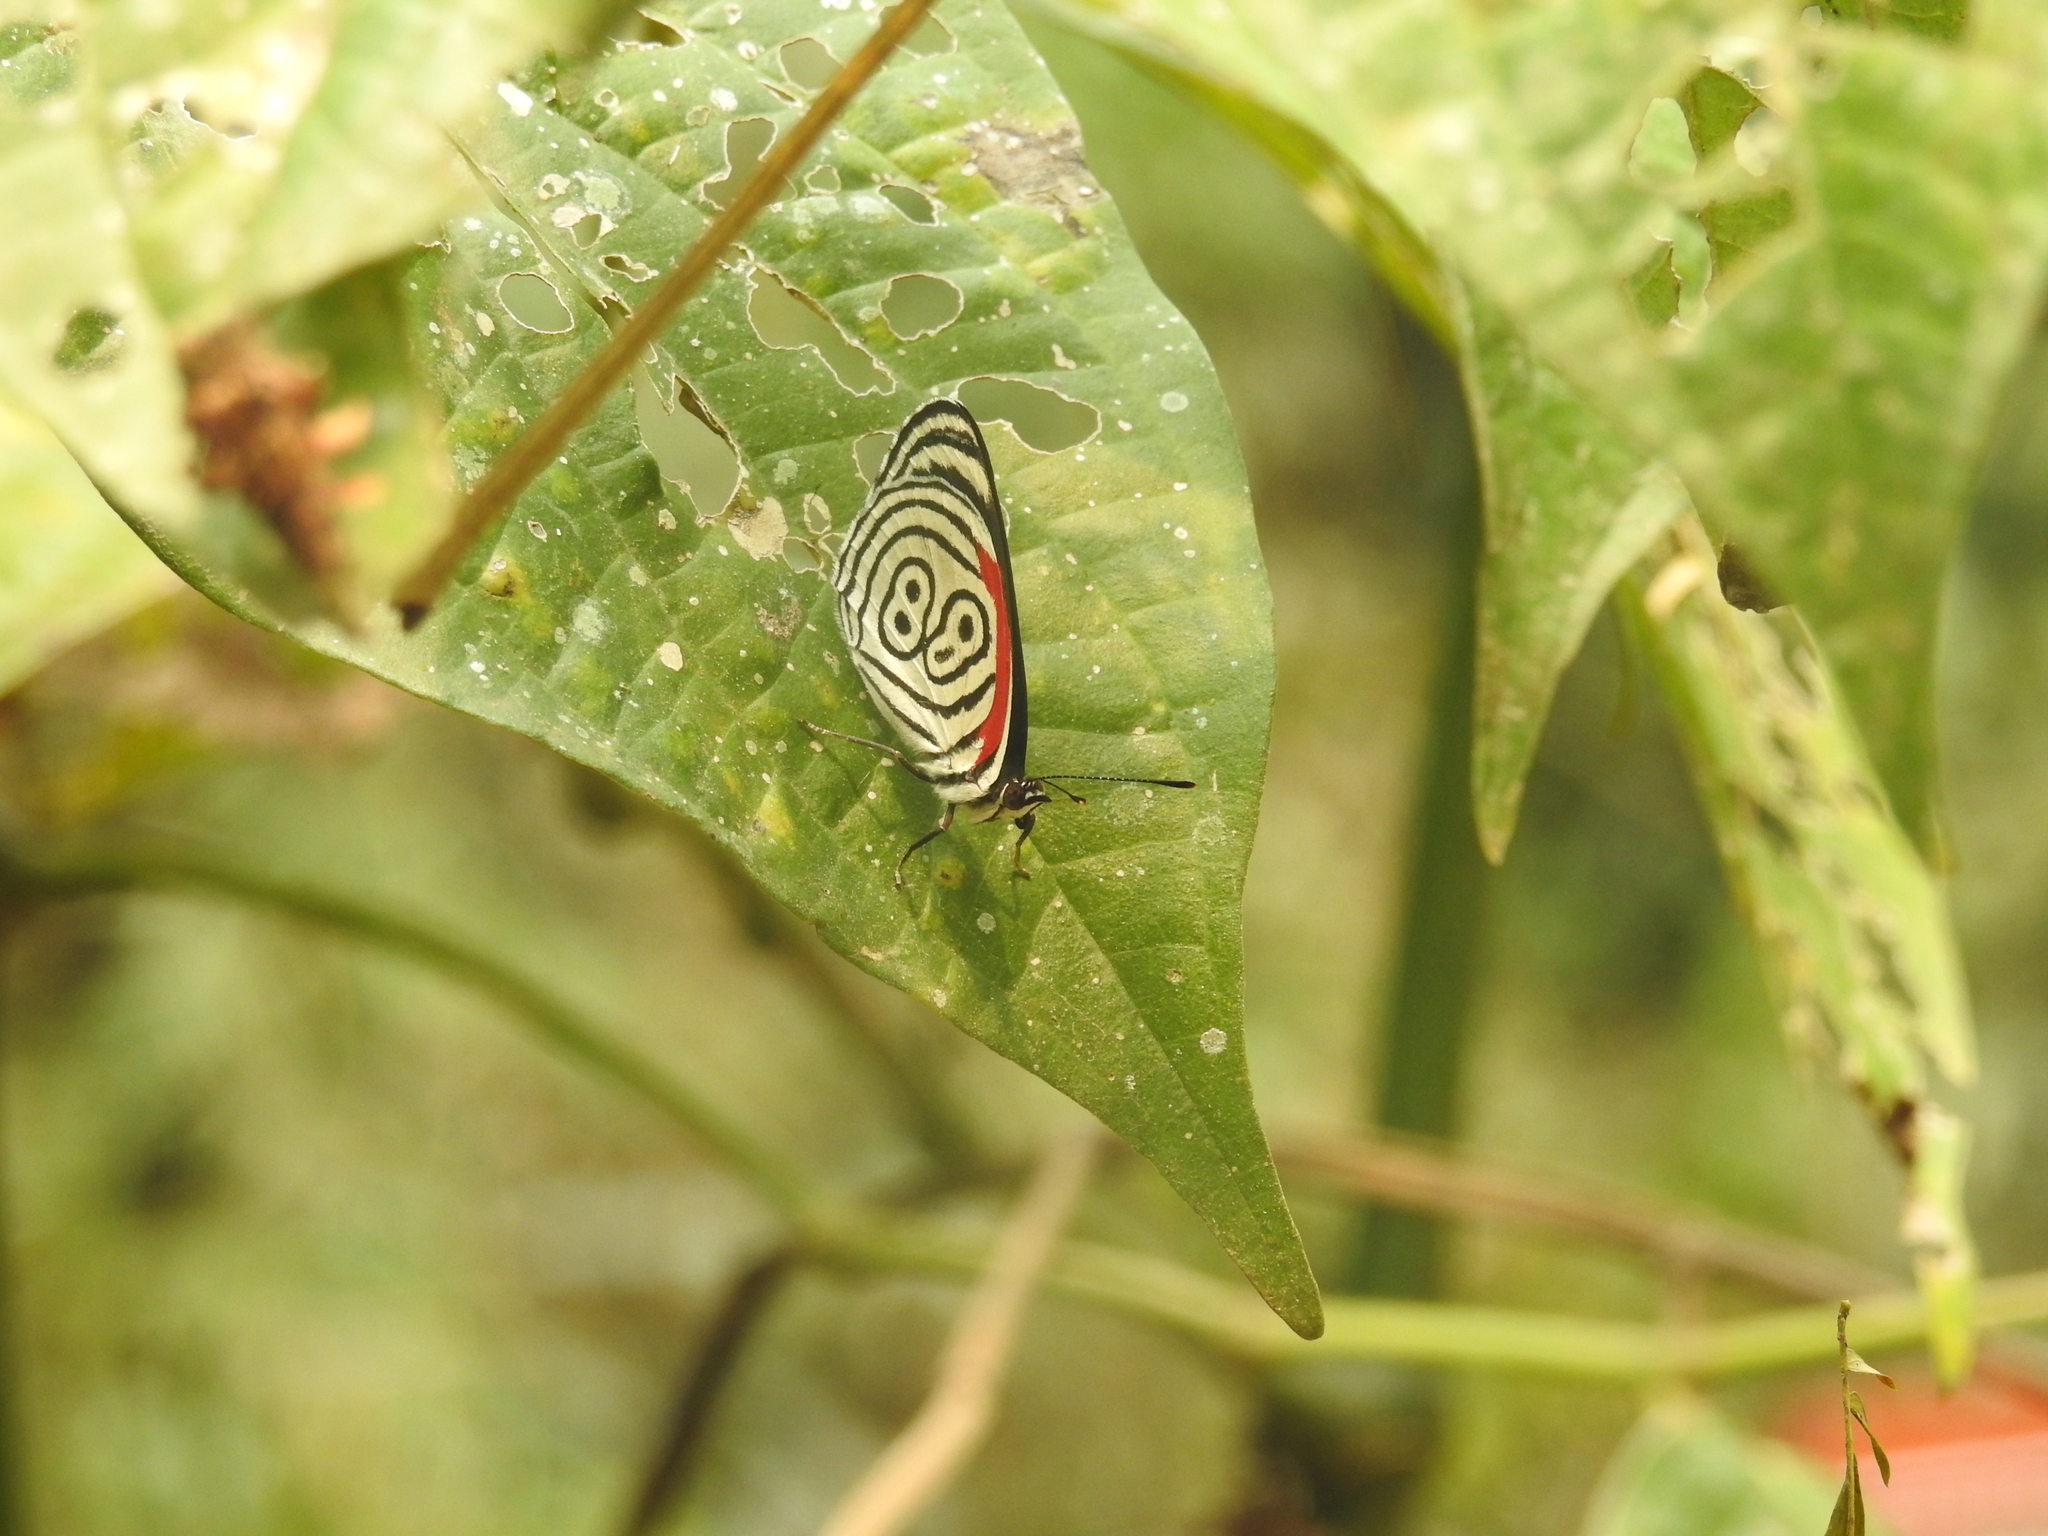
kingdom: Animalia
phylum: Arthropoda
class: Insecta
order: Lepidoptera
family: Nymphalidae
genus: Diaethria
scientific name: Diaethria clymena
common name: Widespread eighty-eight
